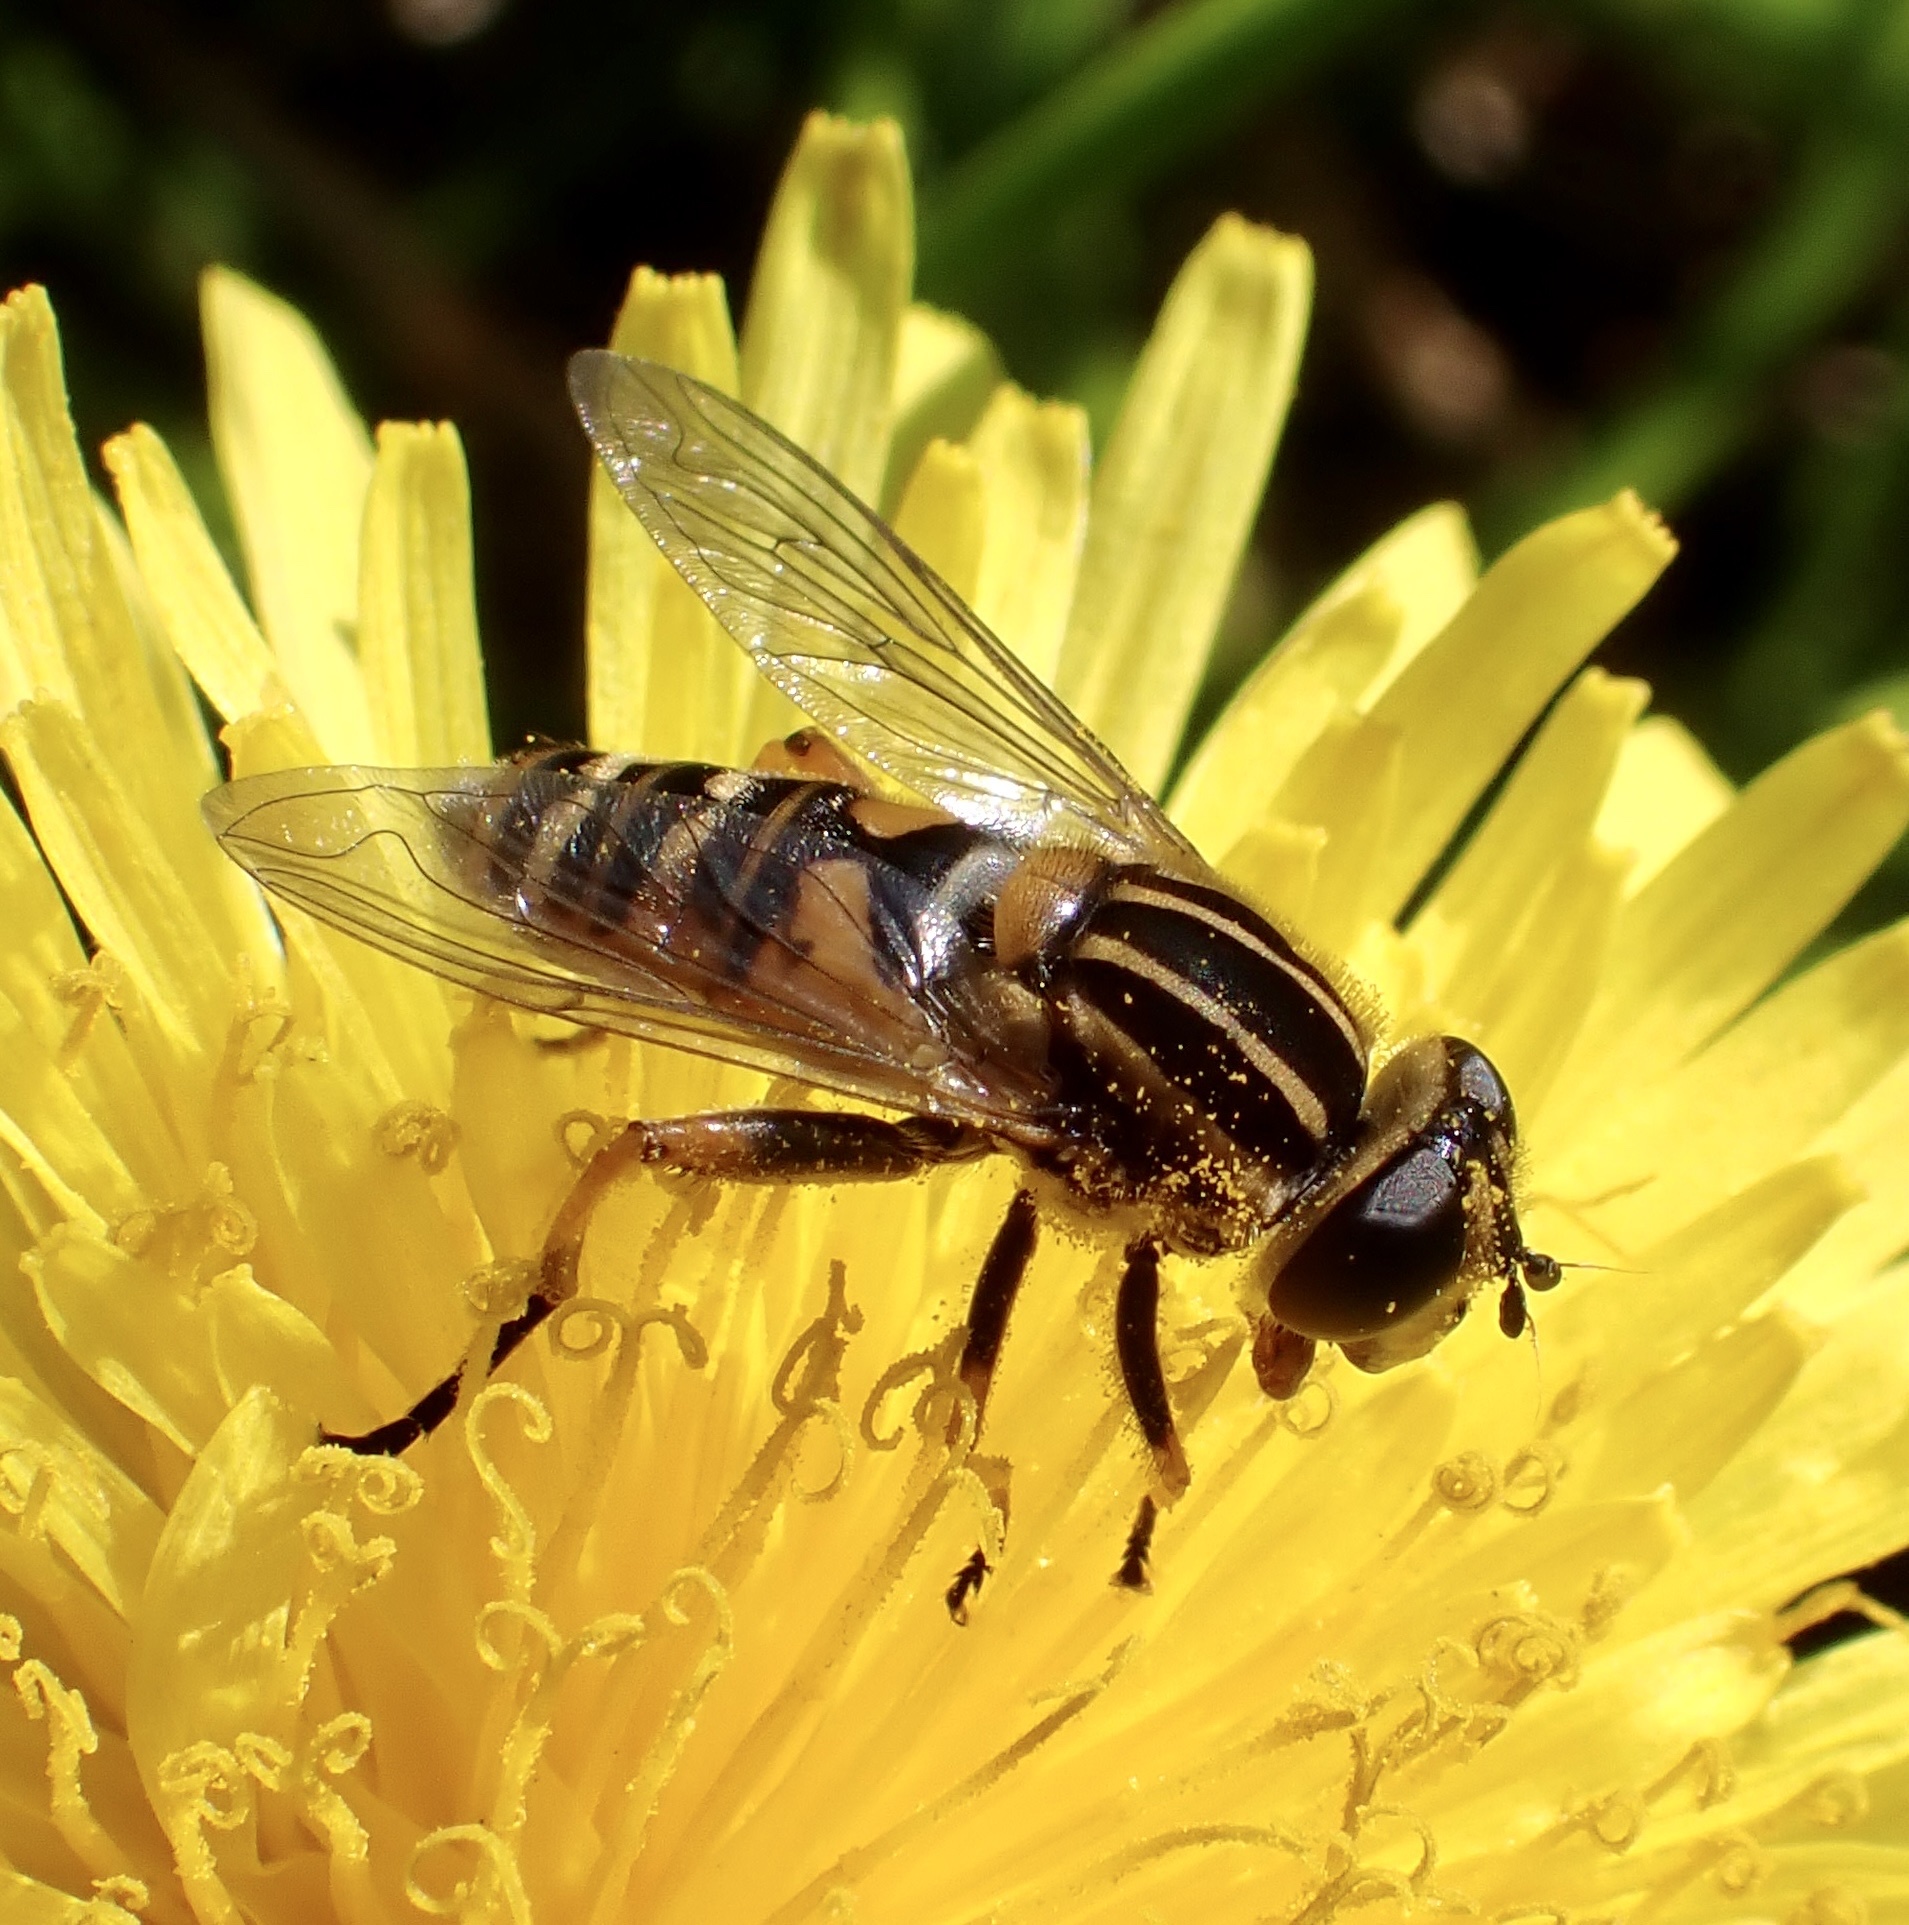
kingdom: Animalia
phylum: Arthropoda
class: Insecta
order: Diptera
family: Syrphidae
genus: Helophilus
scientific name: Helophilus pendulus
